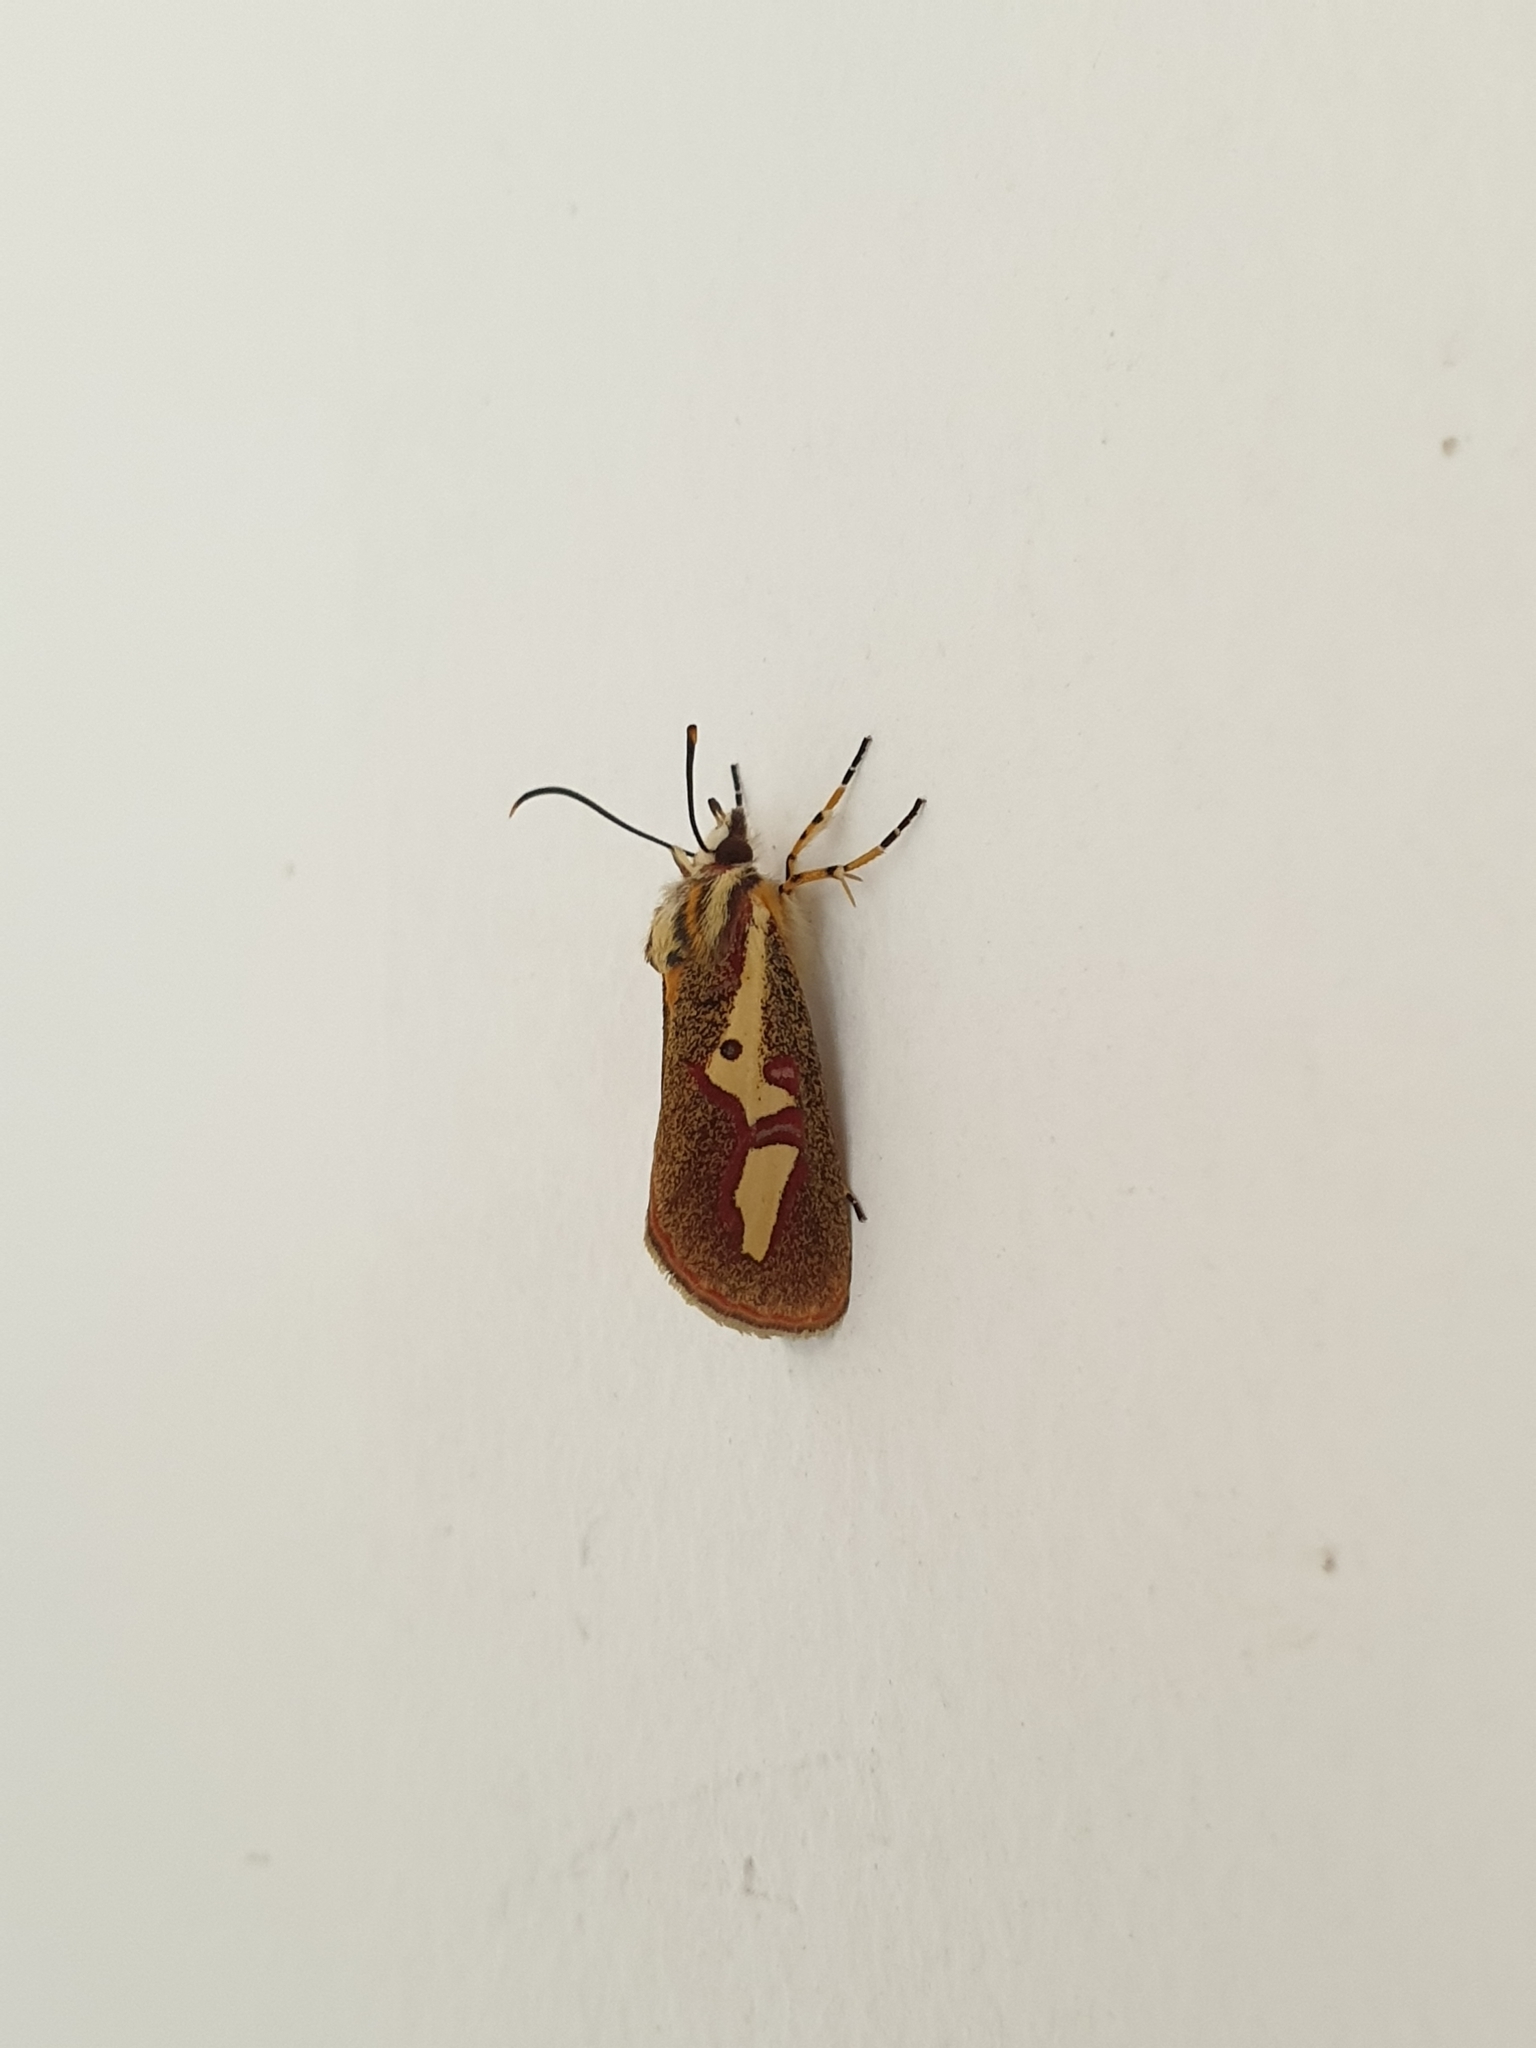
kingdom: Animalia
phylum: Arthropoda
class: Insecta
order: Lepidoptera
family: Noctuidae
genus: Aegocera
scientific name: Aegocera venulia
